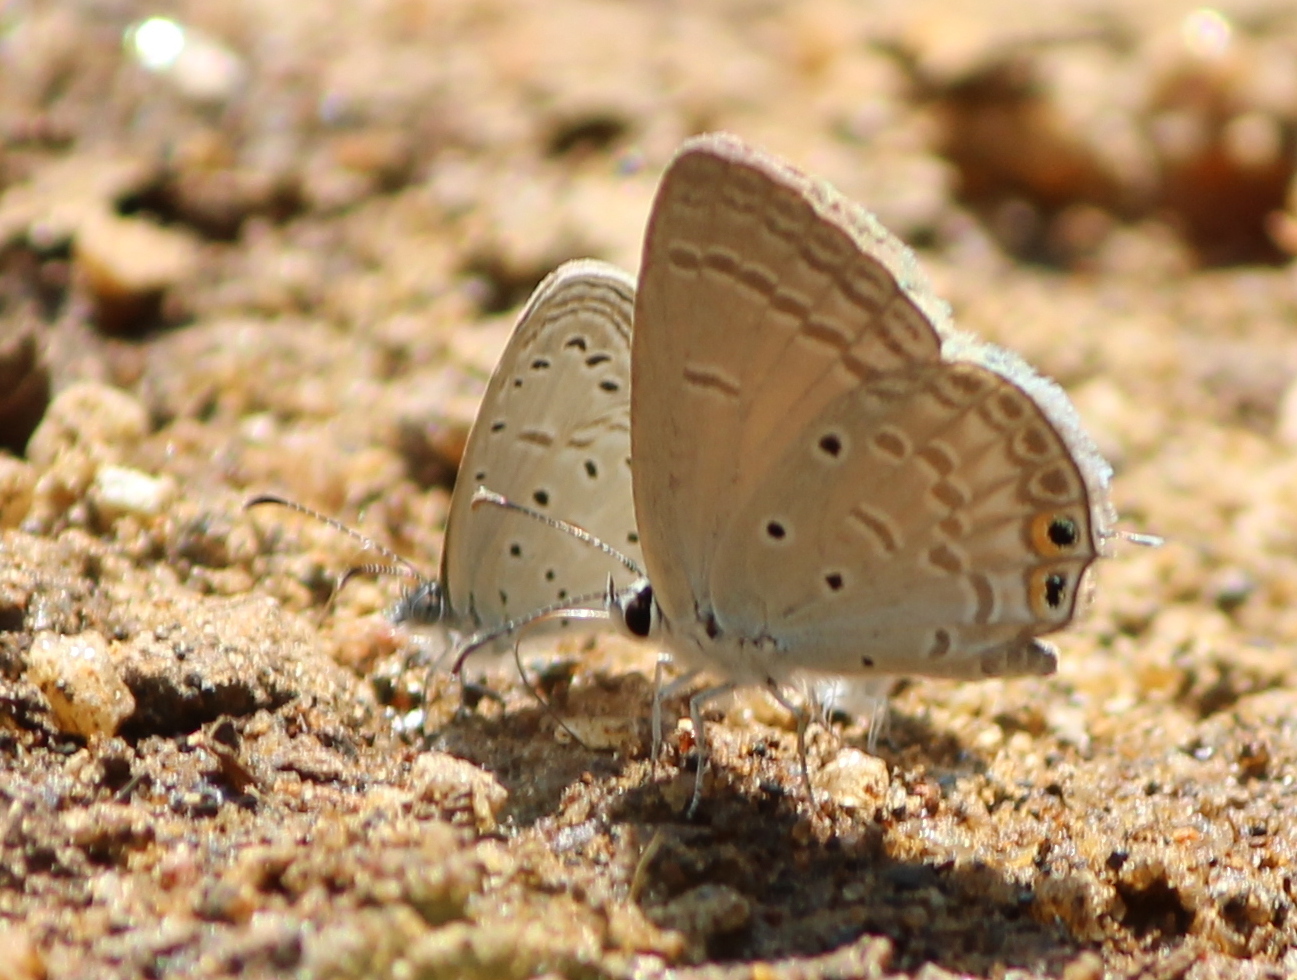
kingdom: Animalia
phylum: Arthropoda
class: Insecta
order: Lepidoptera
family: Lycaenidae
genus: Euchrysops
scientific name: Euchrysops cnejus
